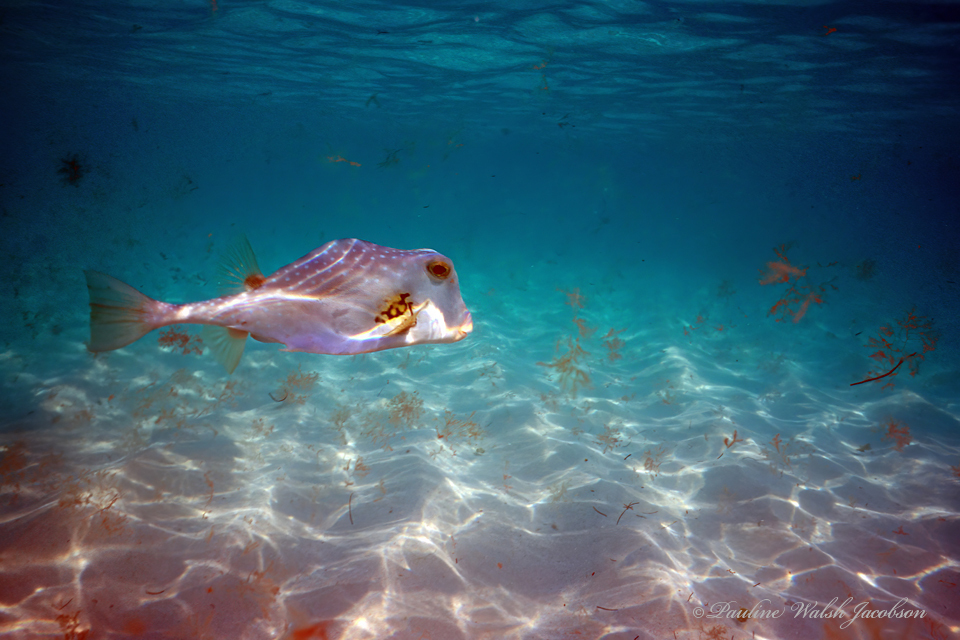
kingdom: Animalia
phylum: Chordata
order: Tetraodontiformes
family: Ostraciidae
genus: Lactophrys
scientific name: Lactophrys trigonus
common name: Buffalo trunkfish
